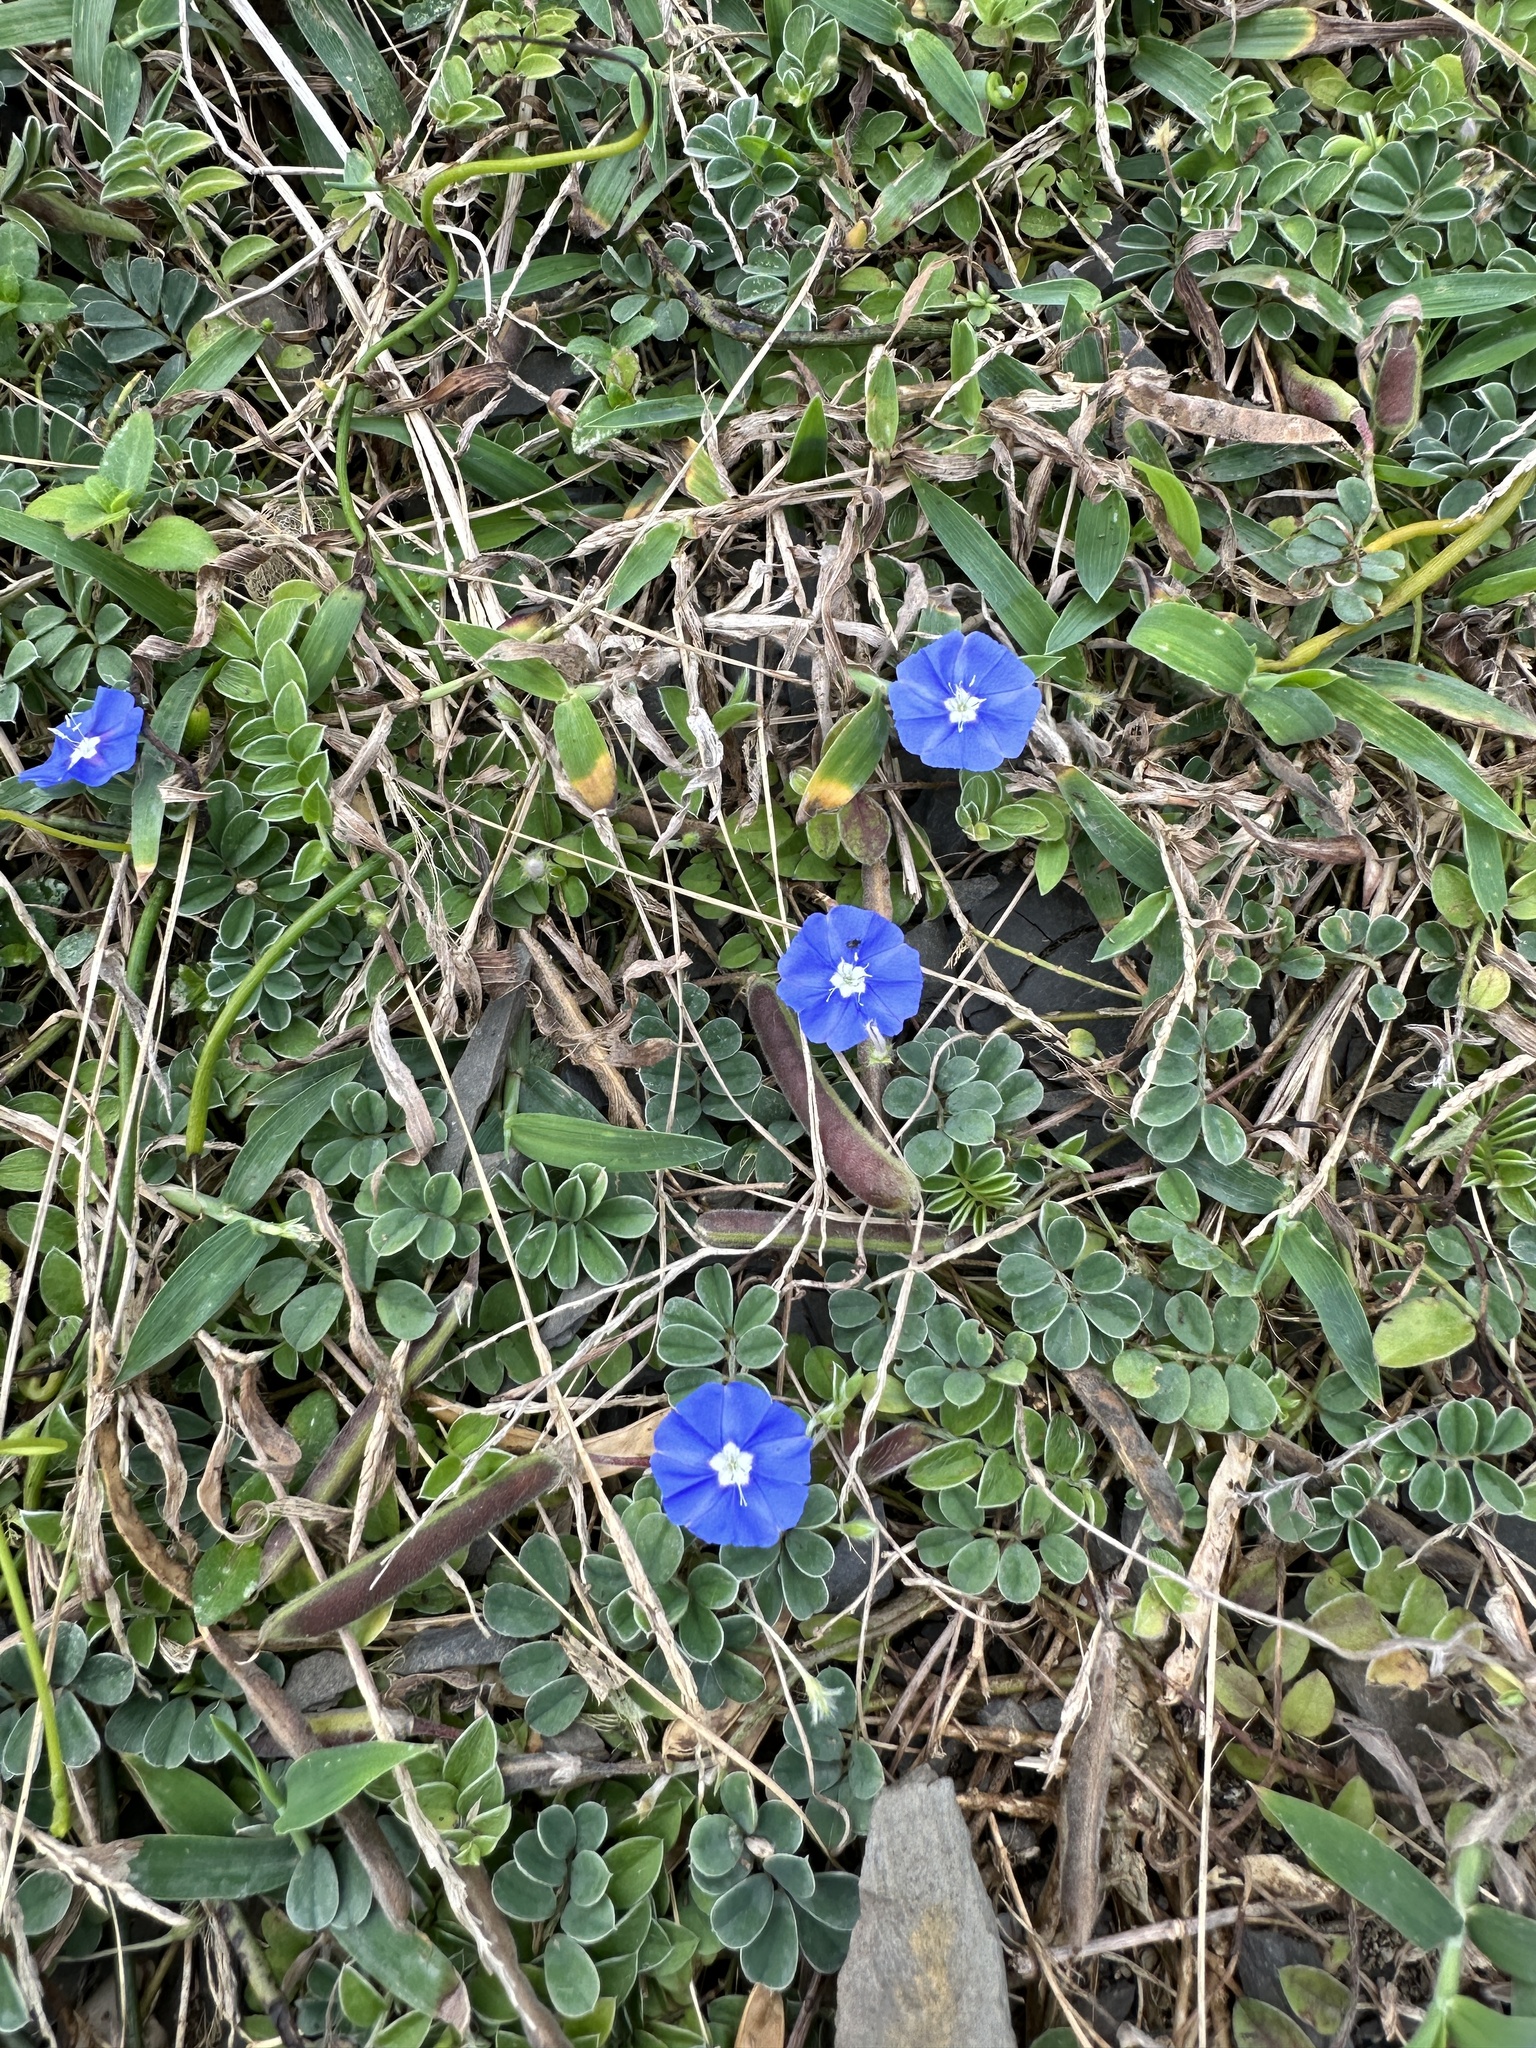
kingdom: Plantae
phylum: Tracheophyta
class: Magnoliopsida
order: Solanales
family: Convolvulaceae
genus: Evolvulus
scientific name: Evolvulus alsinoides
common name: Slender dwarf morning-glory
